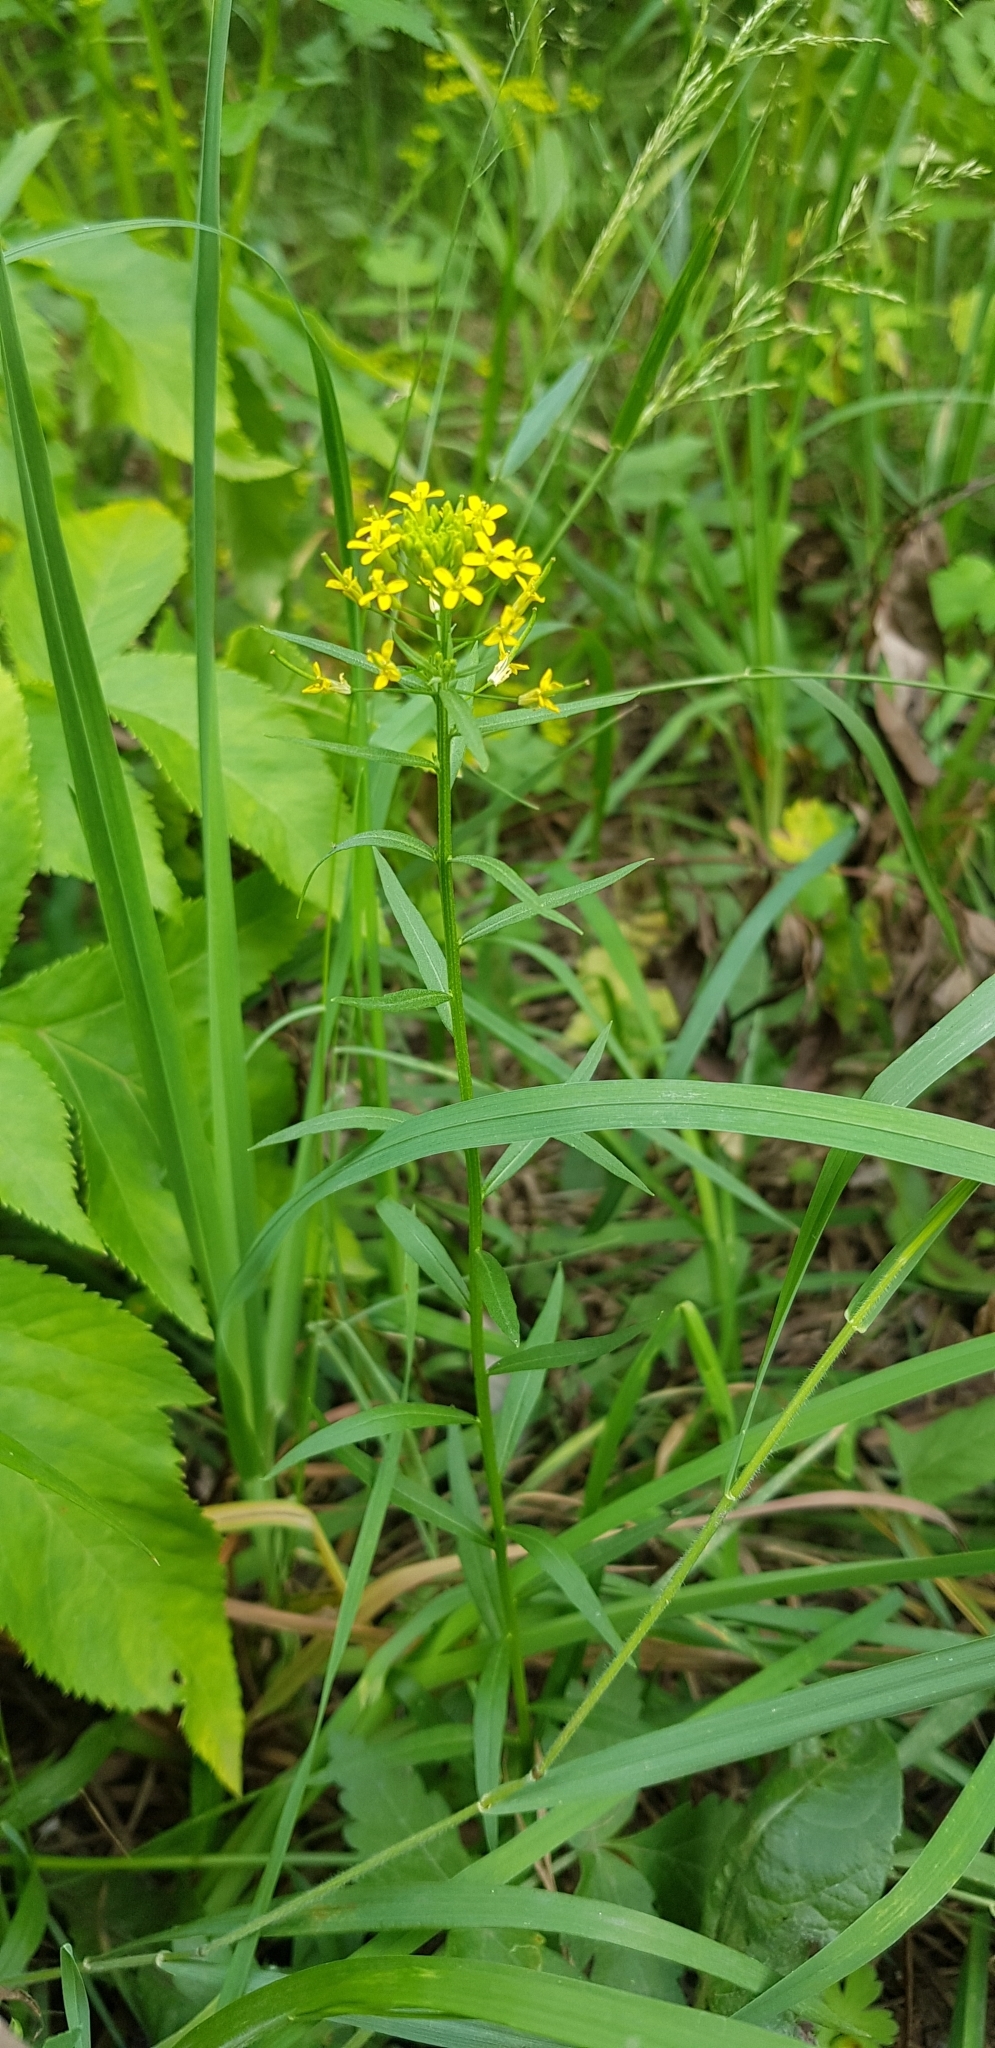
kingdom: Plantae
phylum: Tracheophyta
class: Magnoliopsida
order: Brassicales
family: Brassicaceae
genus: Erysimum
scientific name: Erysimum cheiranthoides
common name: Treacle mustard
